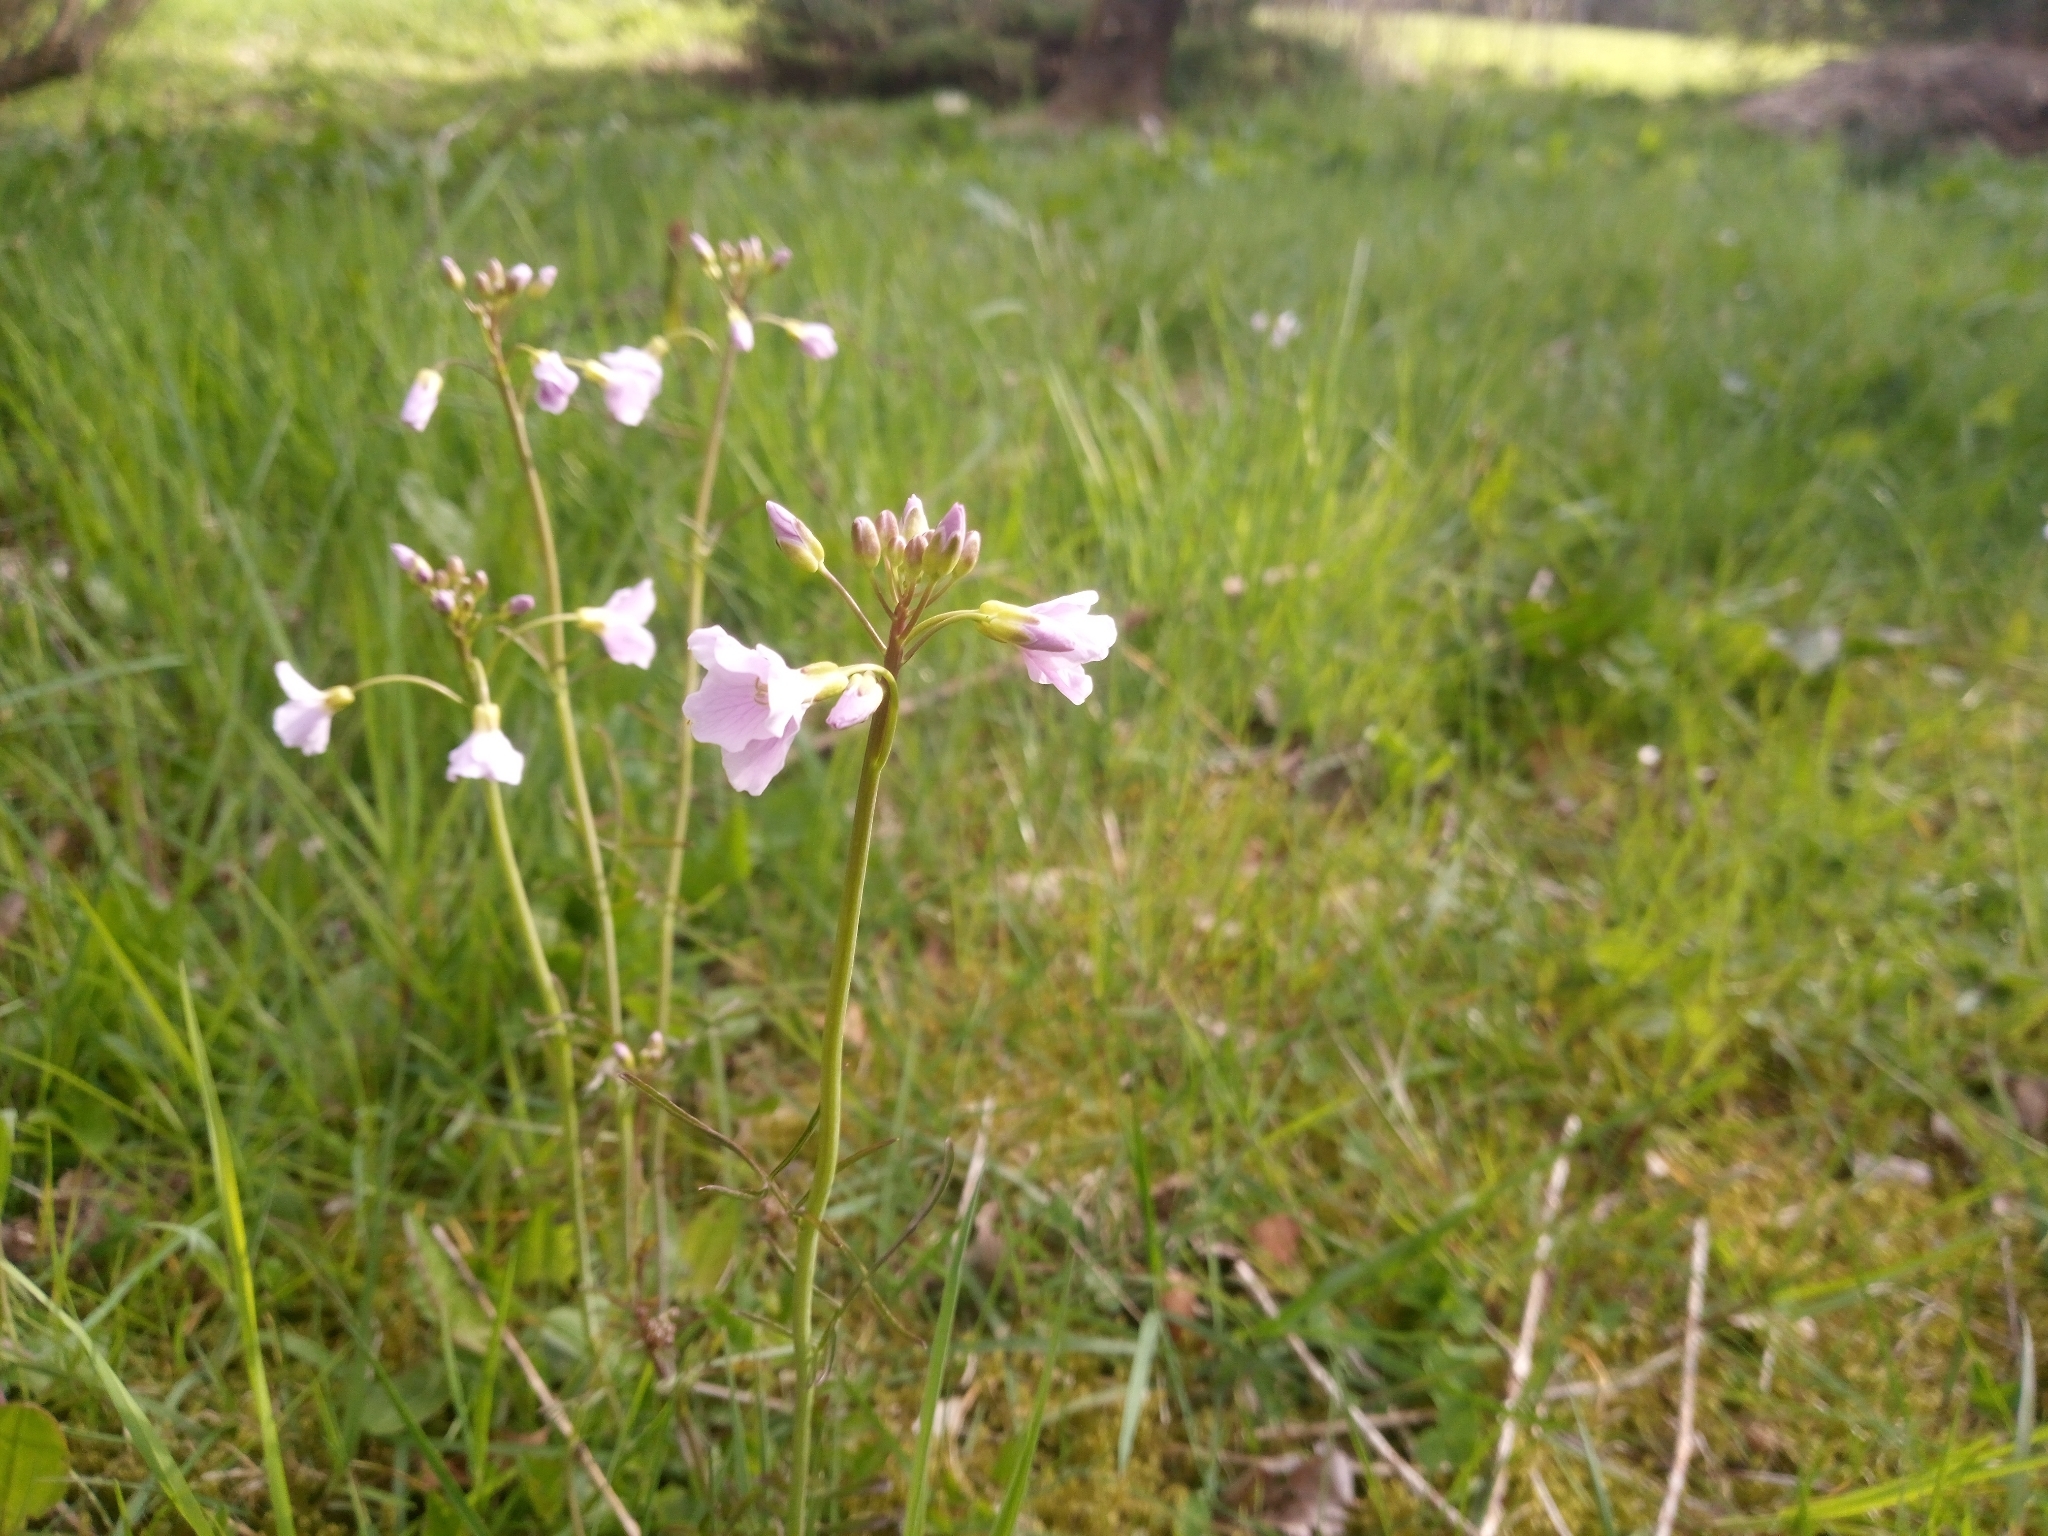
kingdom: Plantae
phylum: Tracheophyta
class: Magnoliopsida
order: Brassicales
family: Brassicaceae
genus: Cardamine
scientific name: Cardamine pratensis
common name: Cuckoo flower
